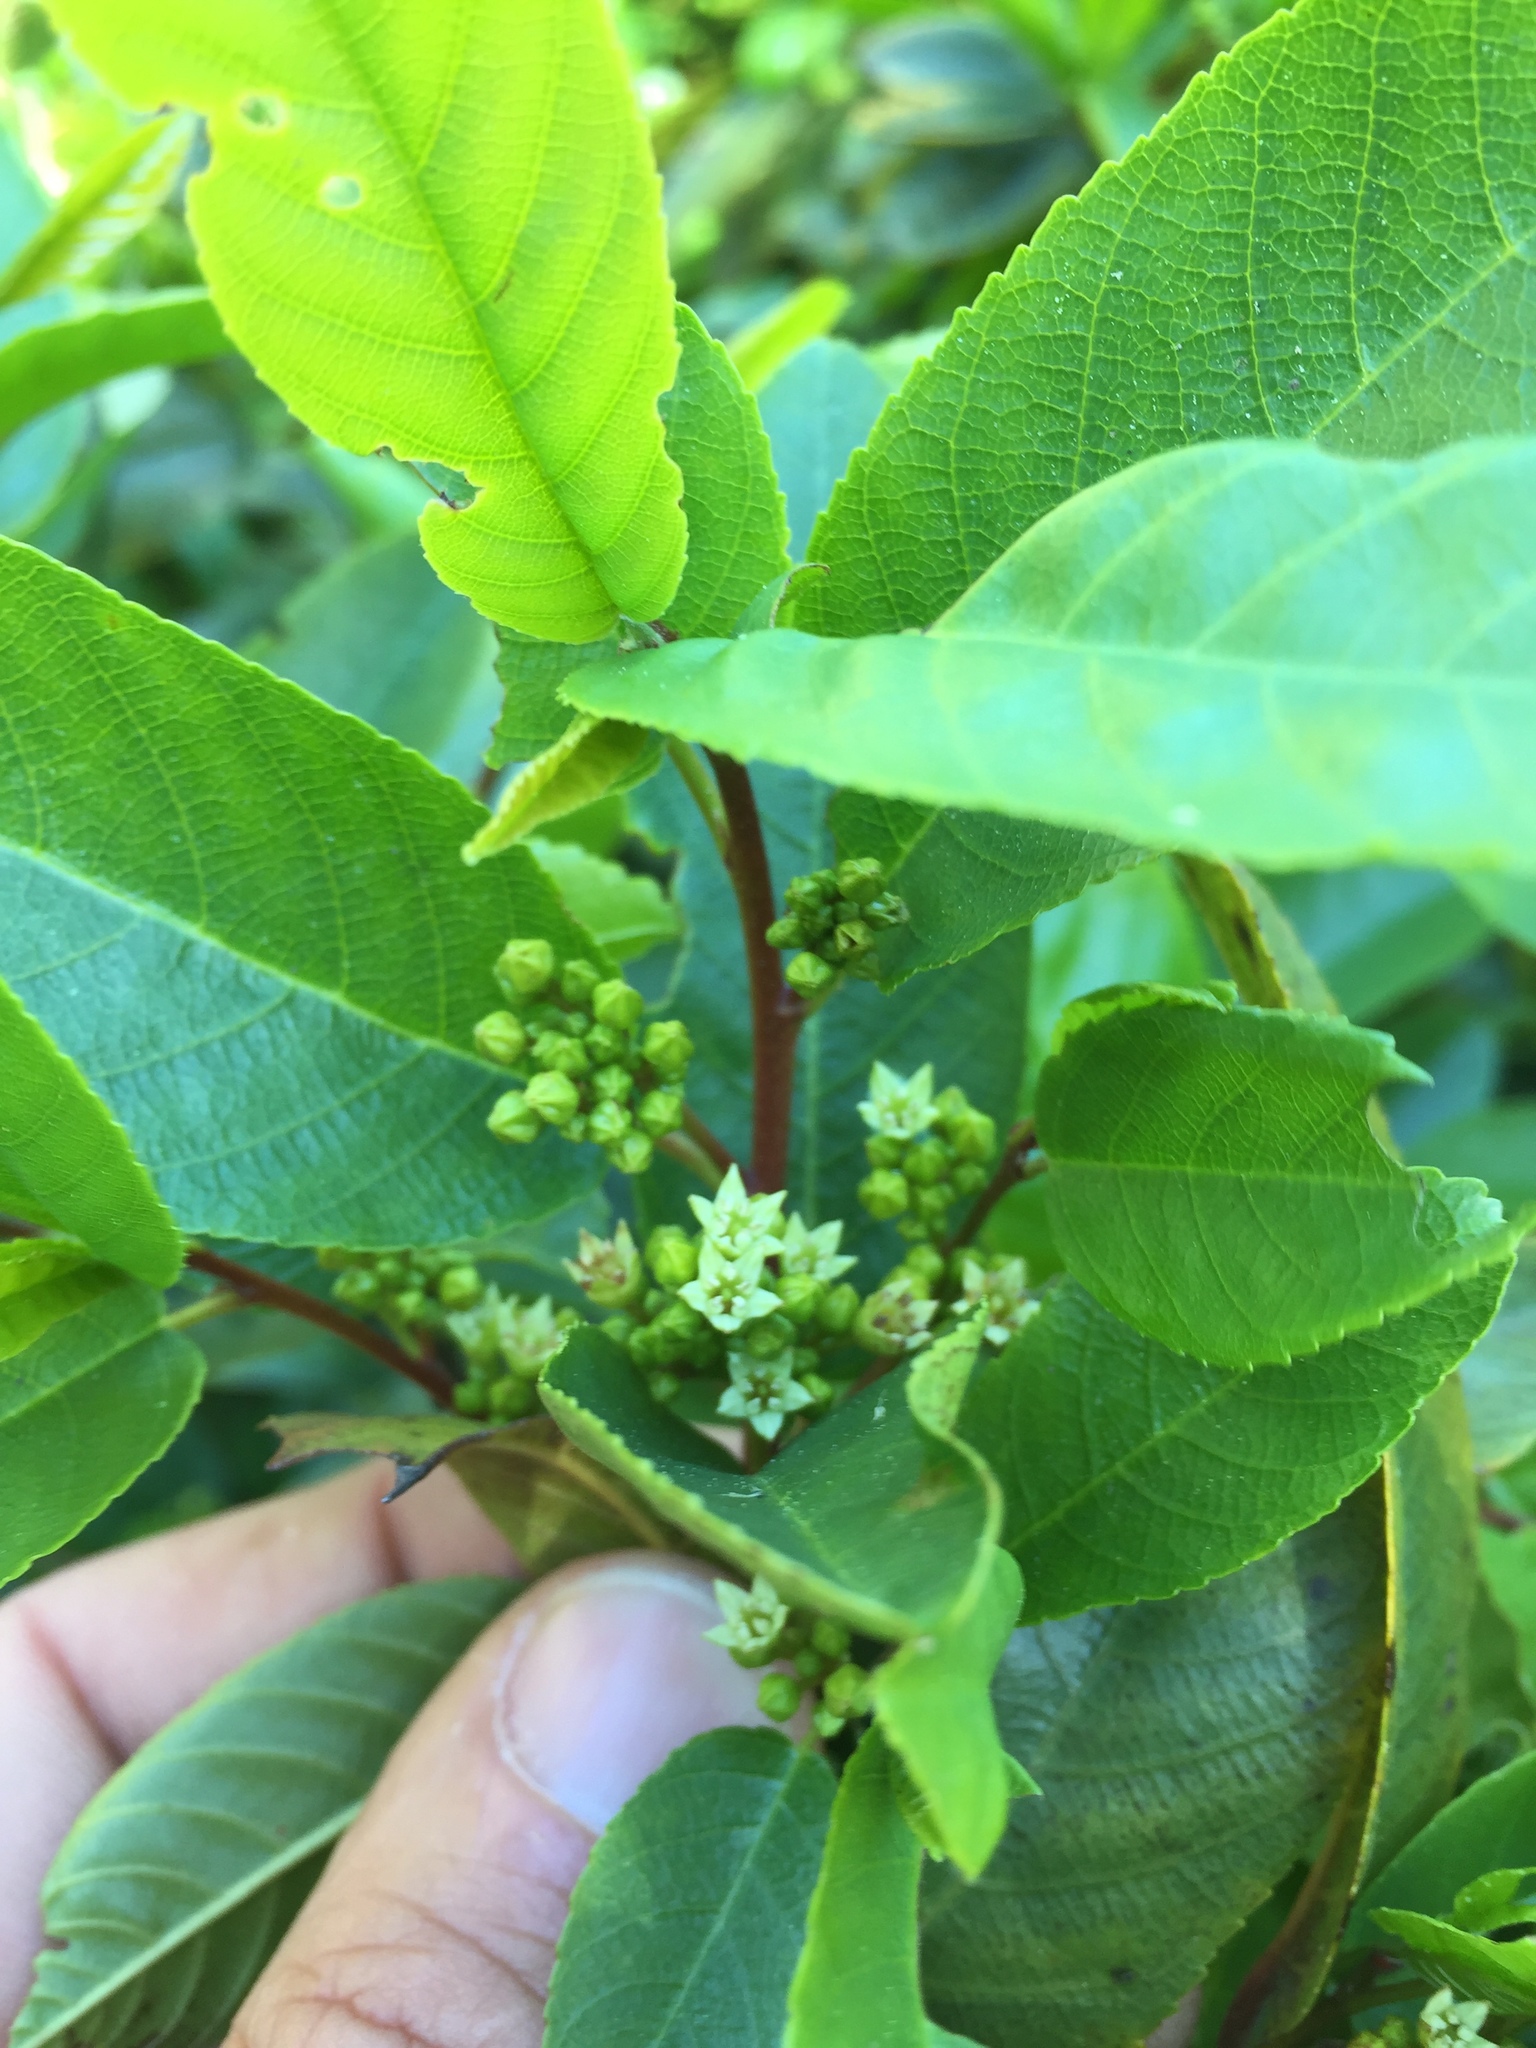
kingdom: Plantae
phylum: Tracheophyta
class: Magnoliopsida
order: Rosales
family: Rhamnaceae
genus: Frangula
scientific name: Frangula californica
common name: California buckthorn
